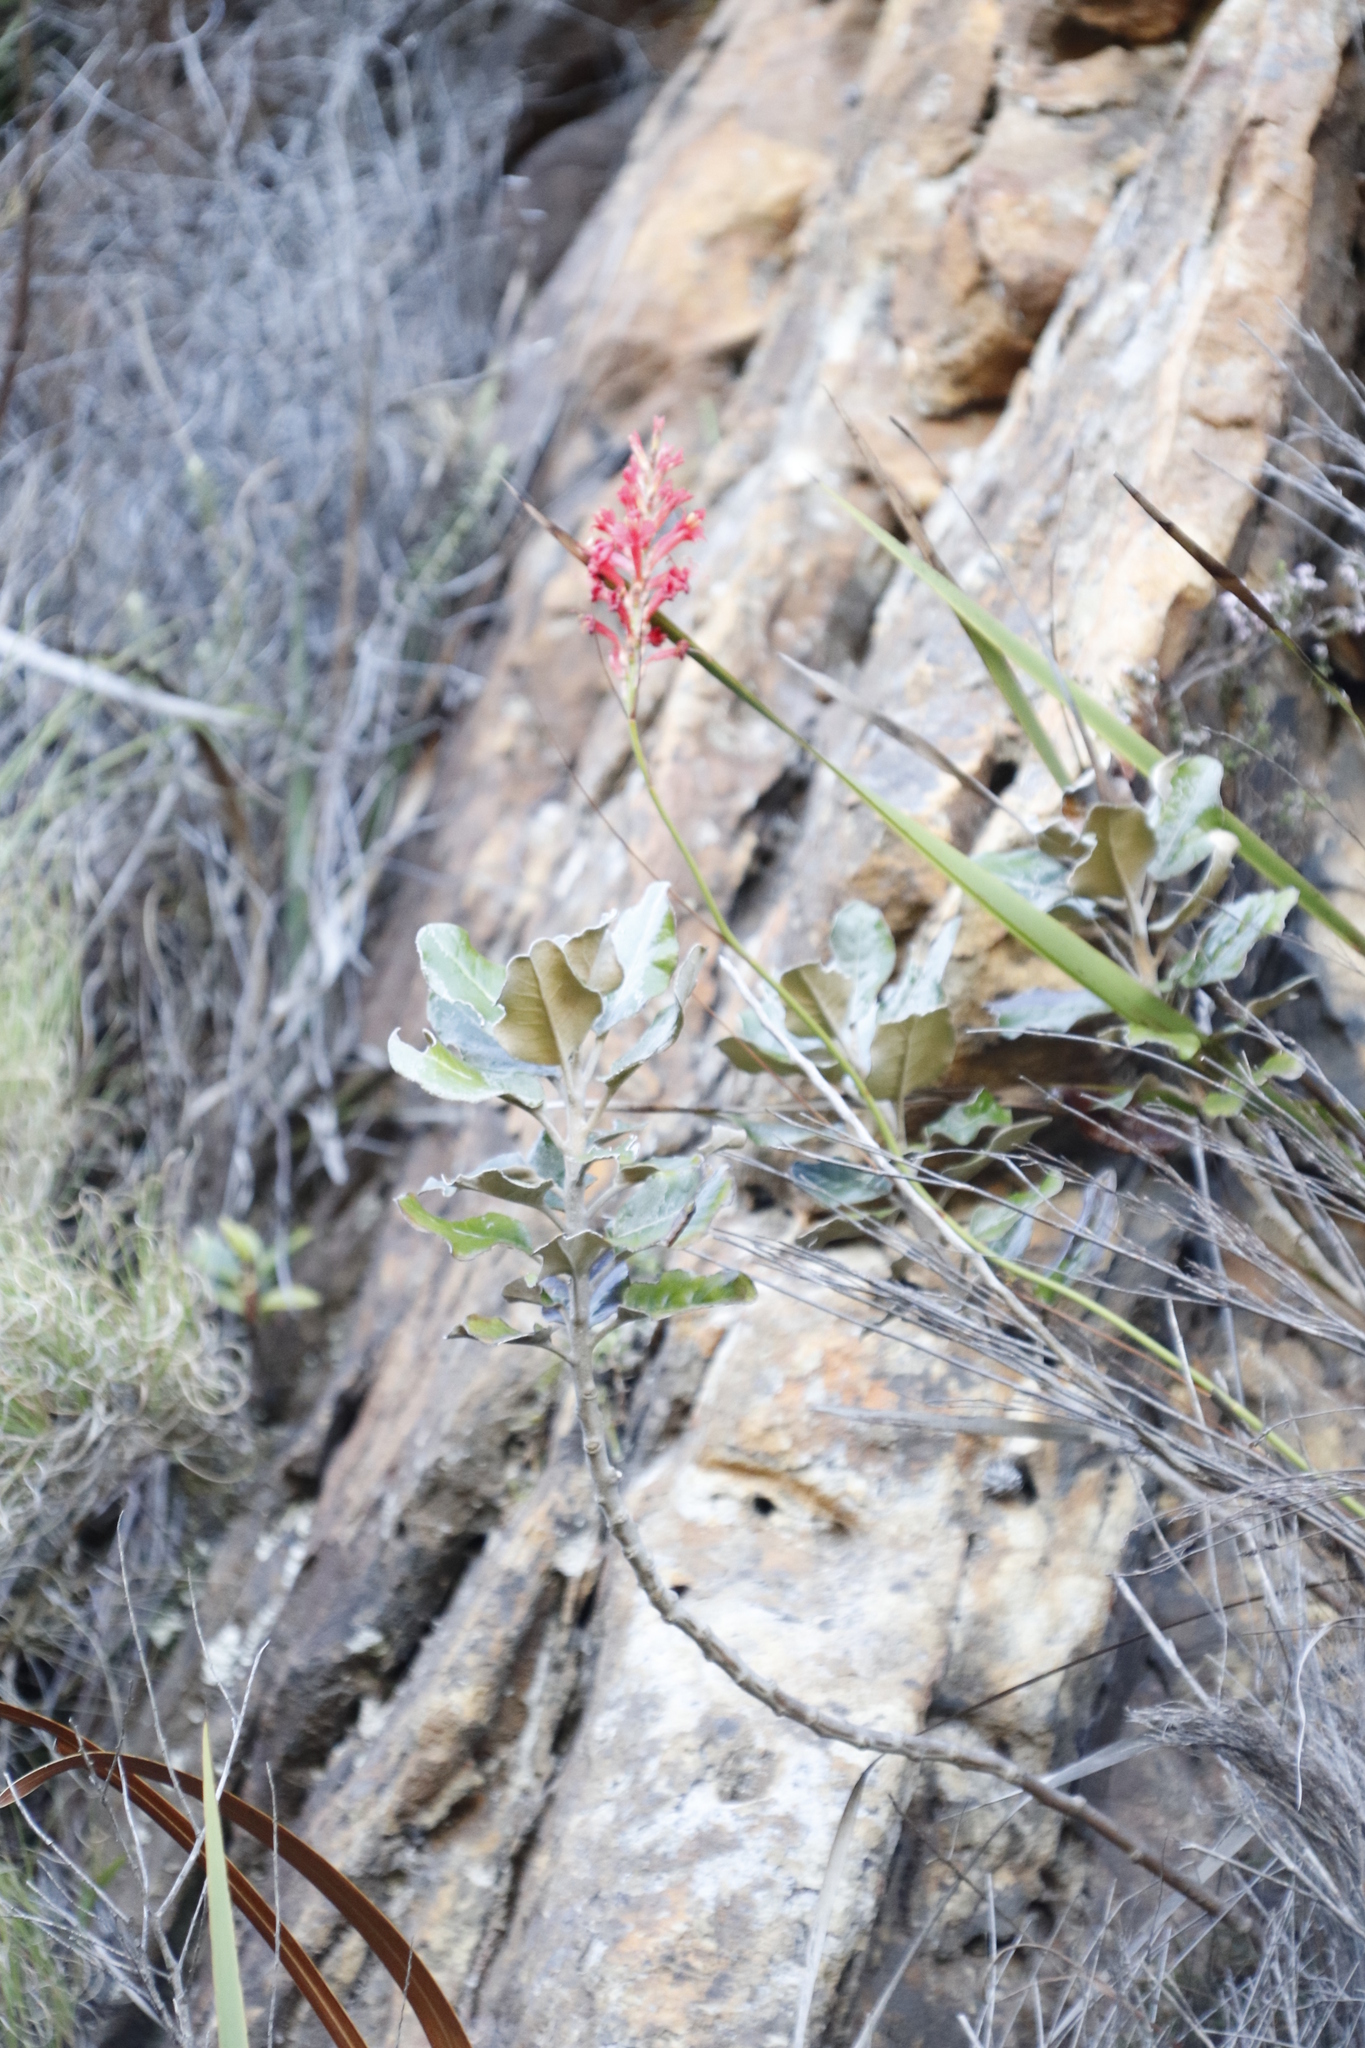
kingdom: Plantae
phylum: Tracheophyta
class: Liliopsida
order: Asparagales
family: Iridaceae
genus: Tritoniopsis
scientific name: Tritoniopsis triticea
